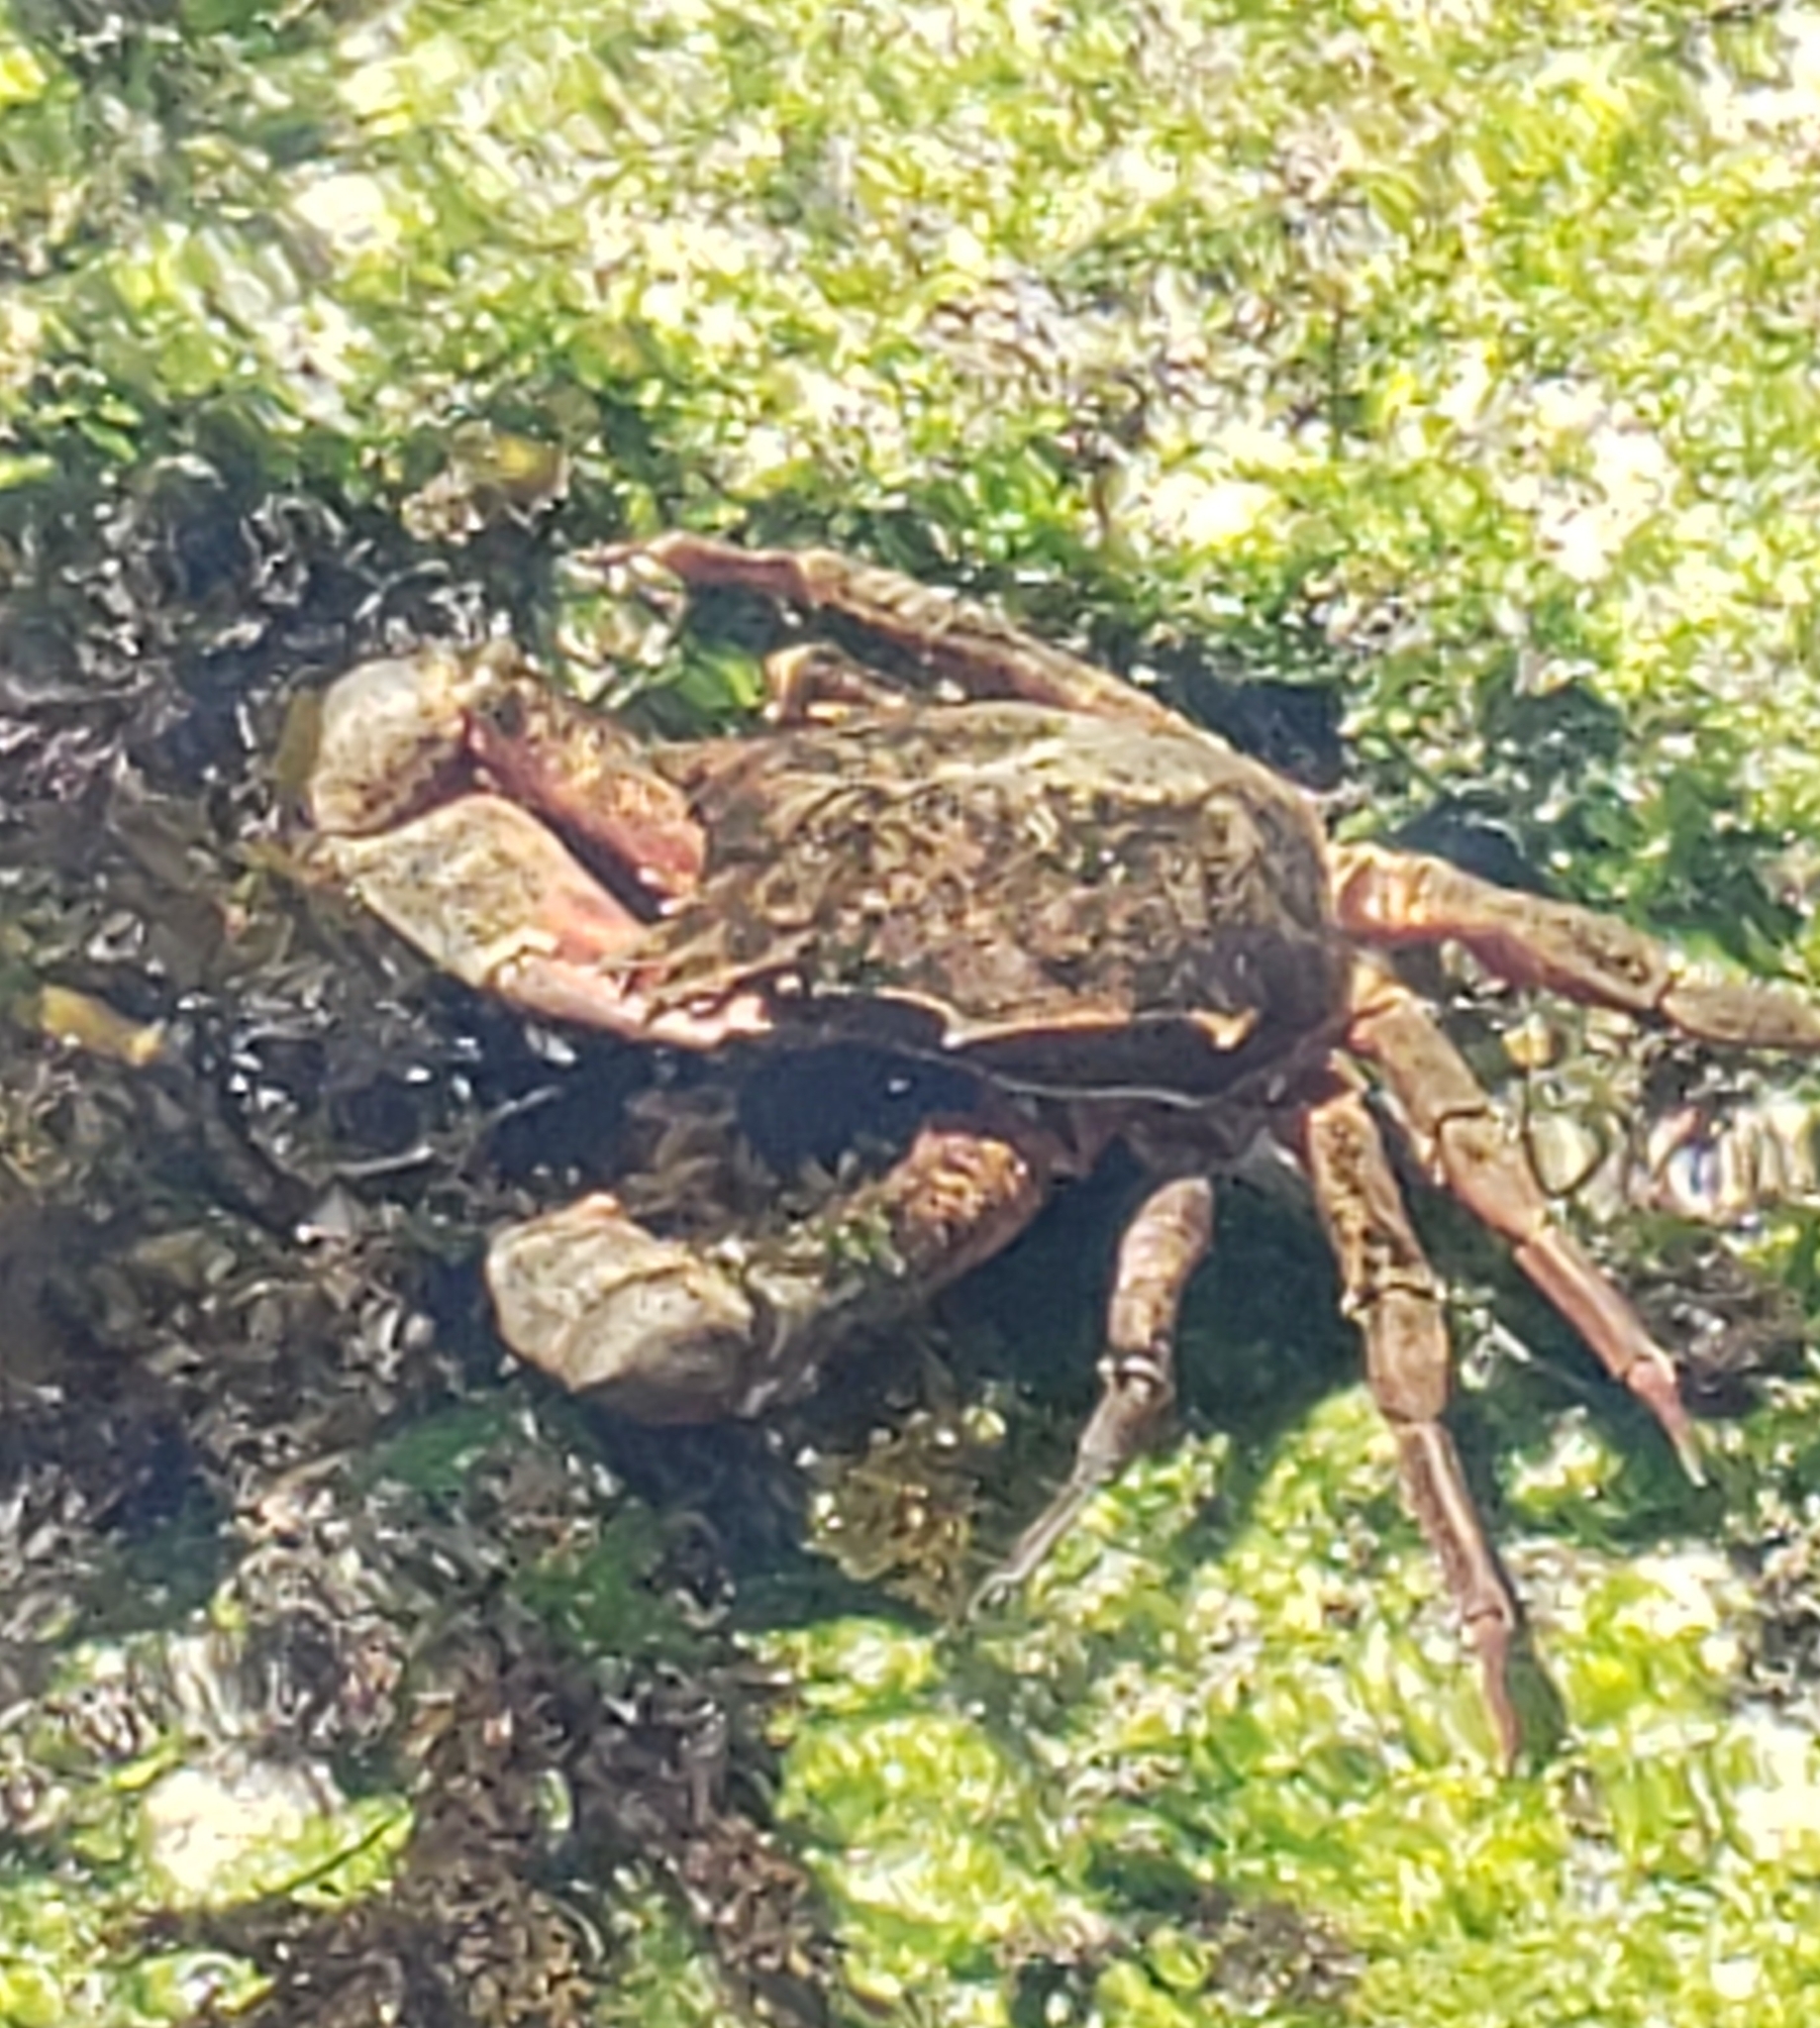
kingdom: Animalia
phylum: Arthropoda
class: Malacostraca
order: Decapoda
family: Epialtidae
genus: Pugettia
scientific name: Pugettia producta
